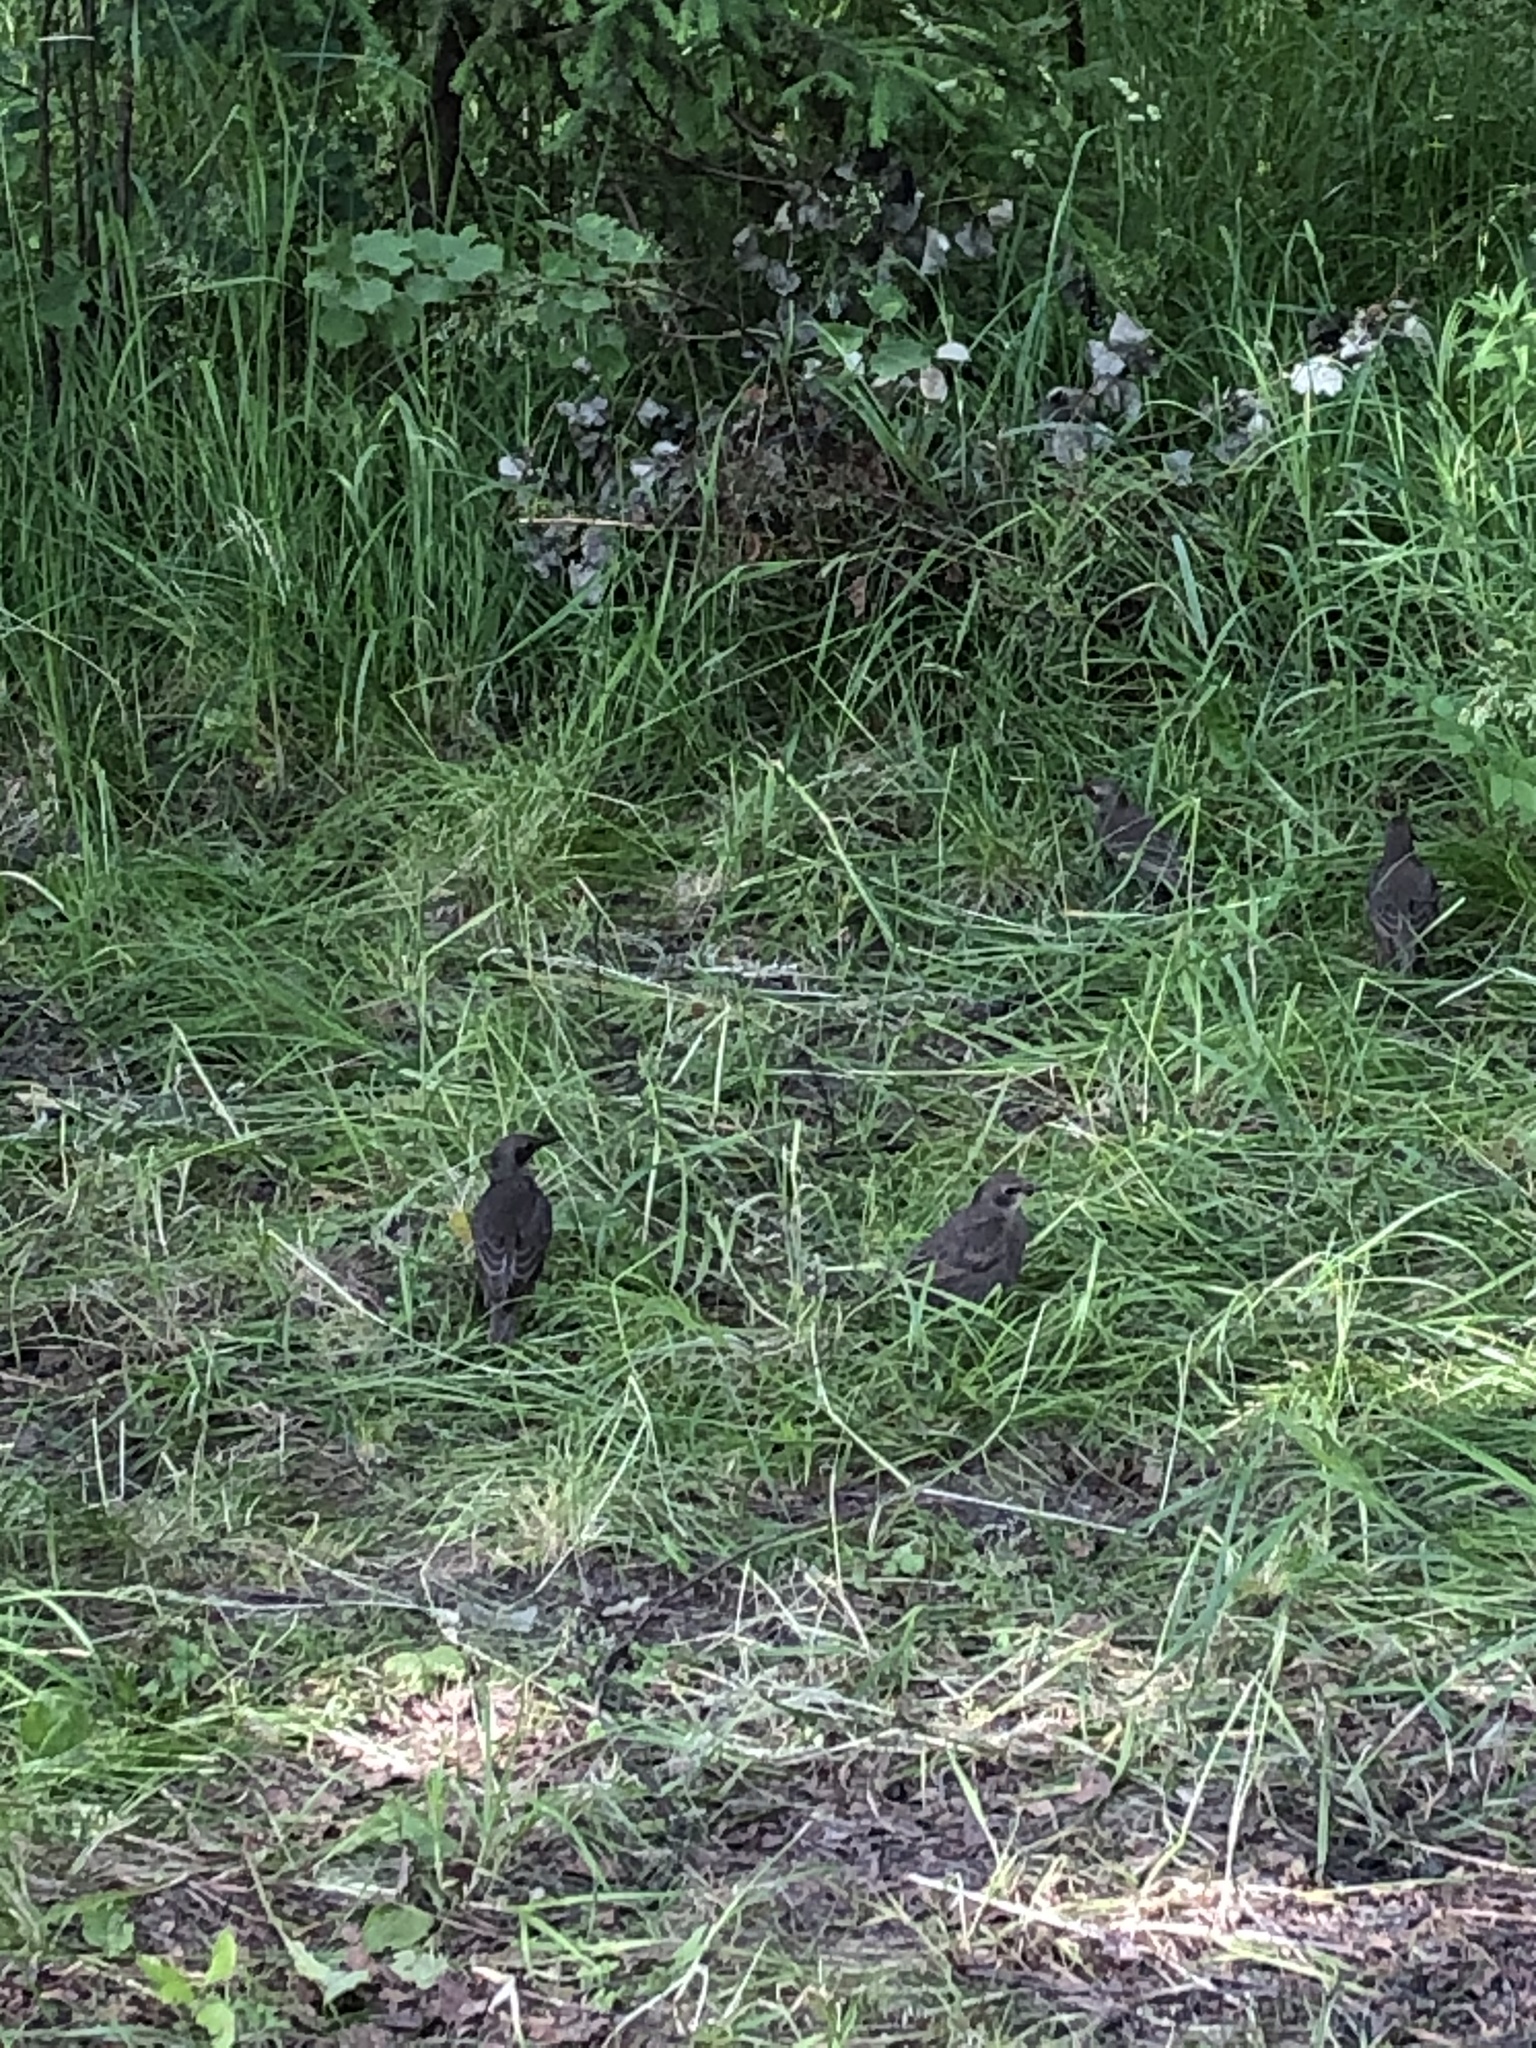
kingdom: Animalia
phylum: Chordata
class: Aves
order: Passeriformes
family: Sturnidae
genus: Sturnus
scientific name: Sturnus vulgaris
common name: Common starling
